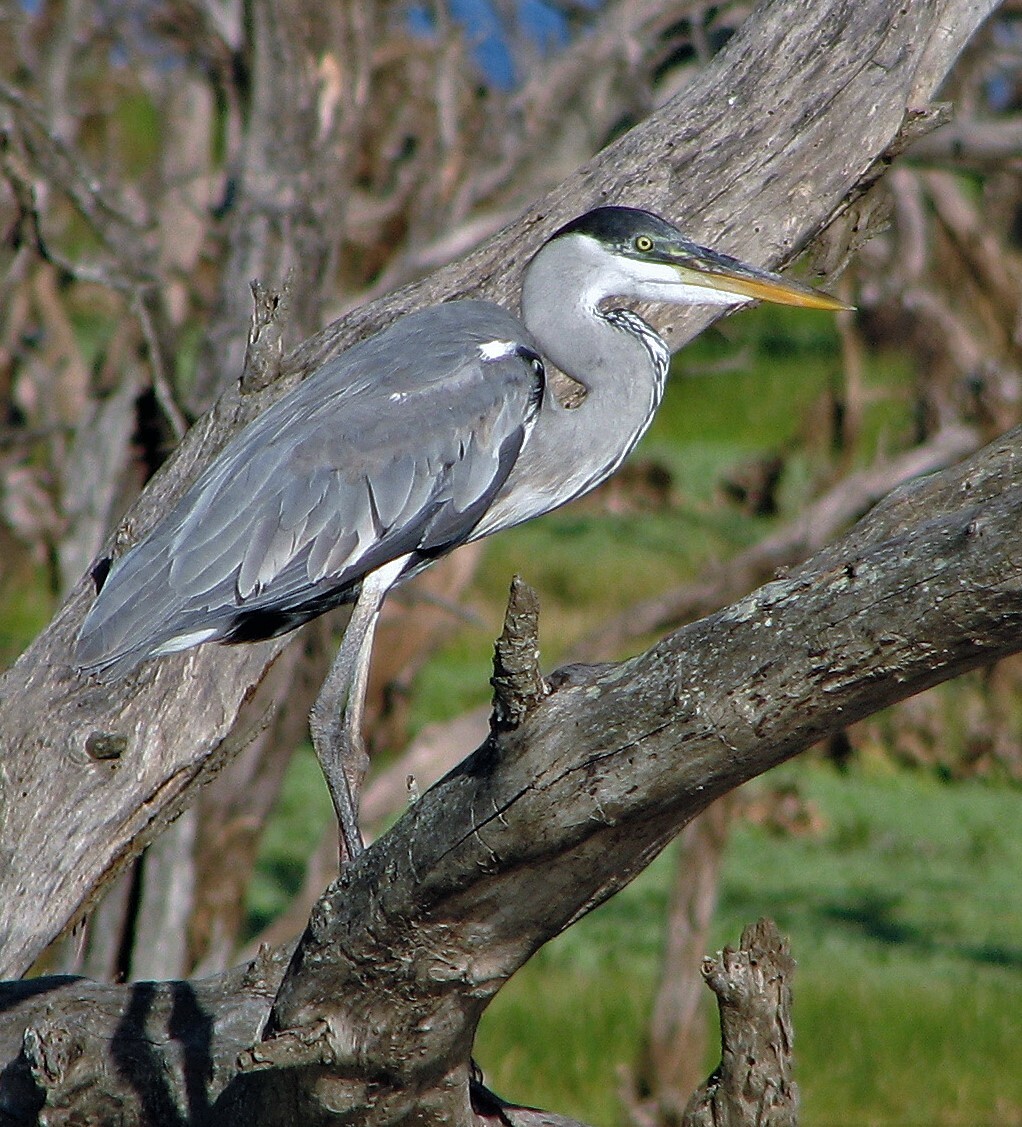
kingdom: Animalia
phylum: Chordata
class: Aves
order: Pelecaniformes
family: Ardeidae
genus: Ardea
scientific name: Ardea cocoi
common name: Cocoi heron
